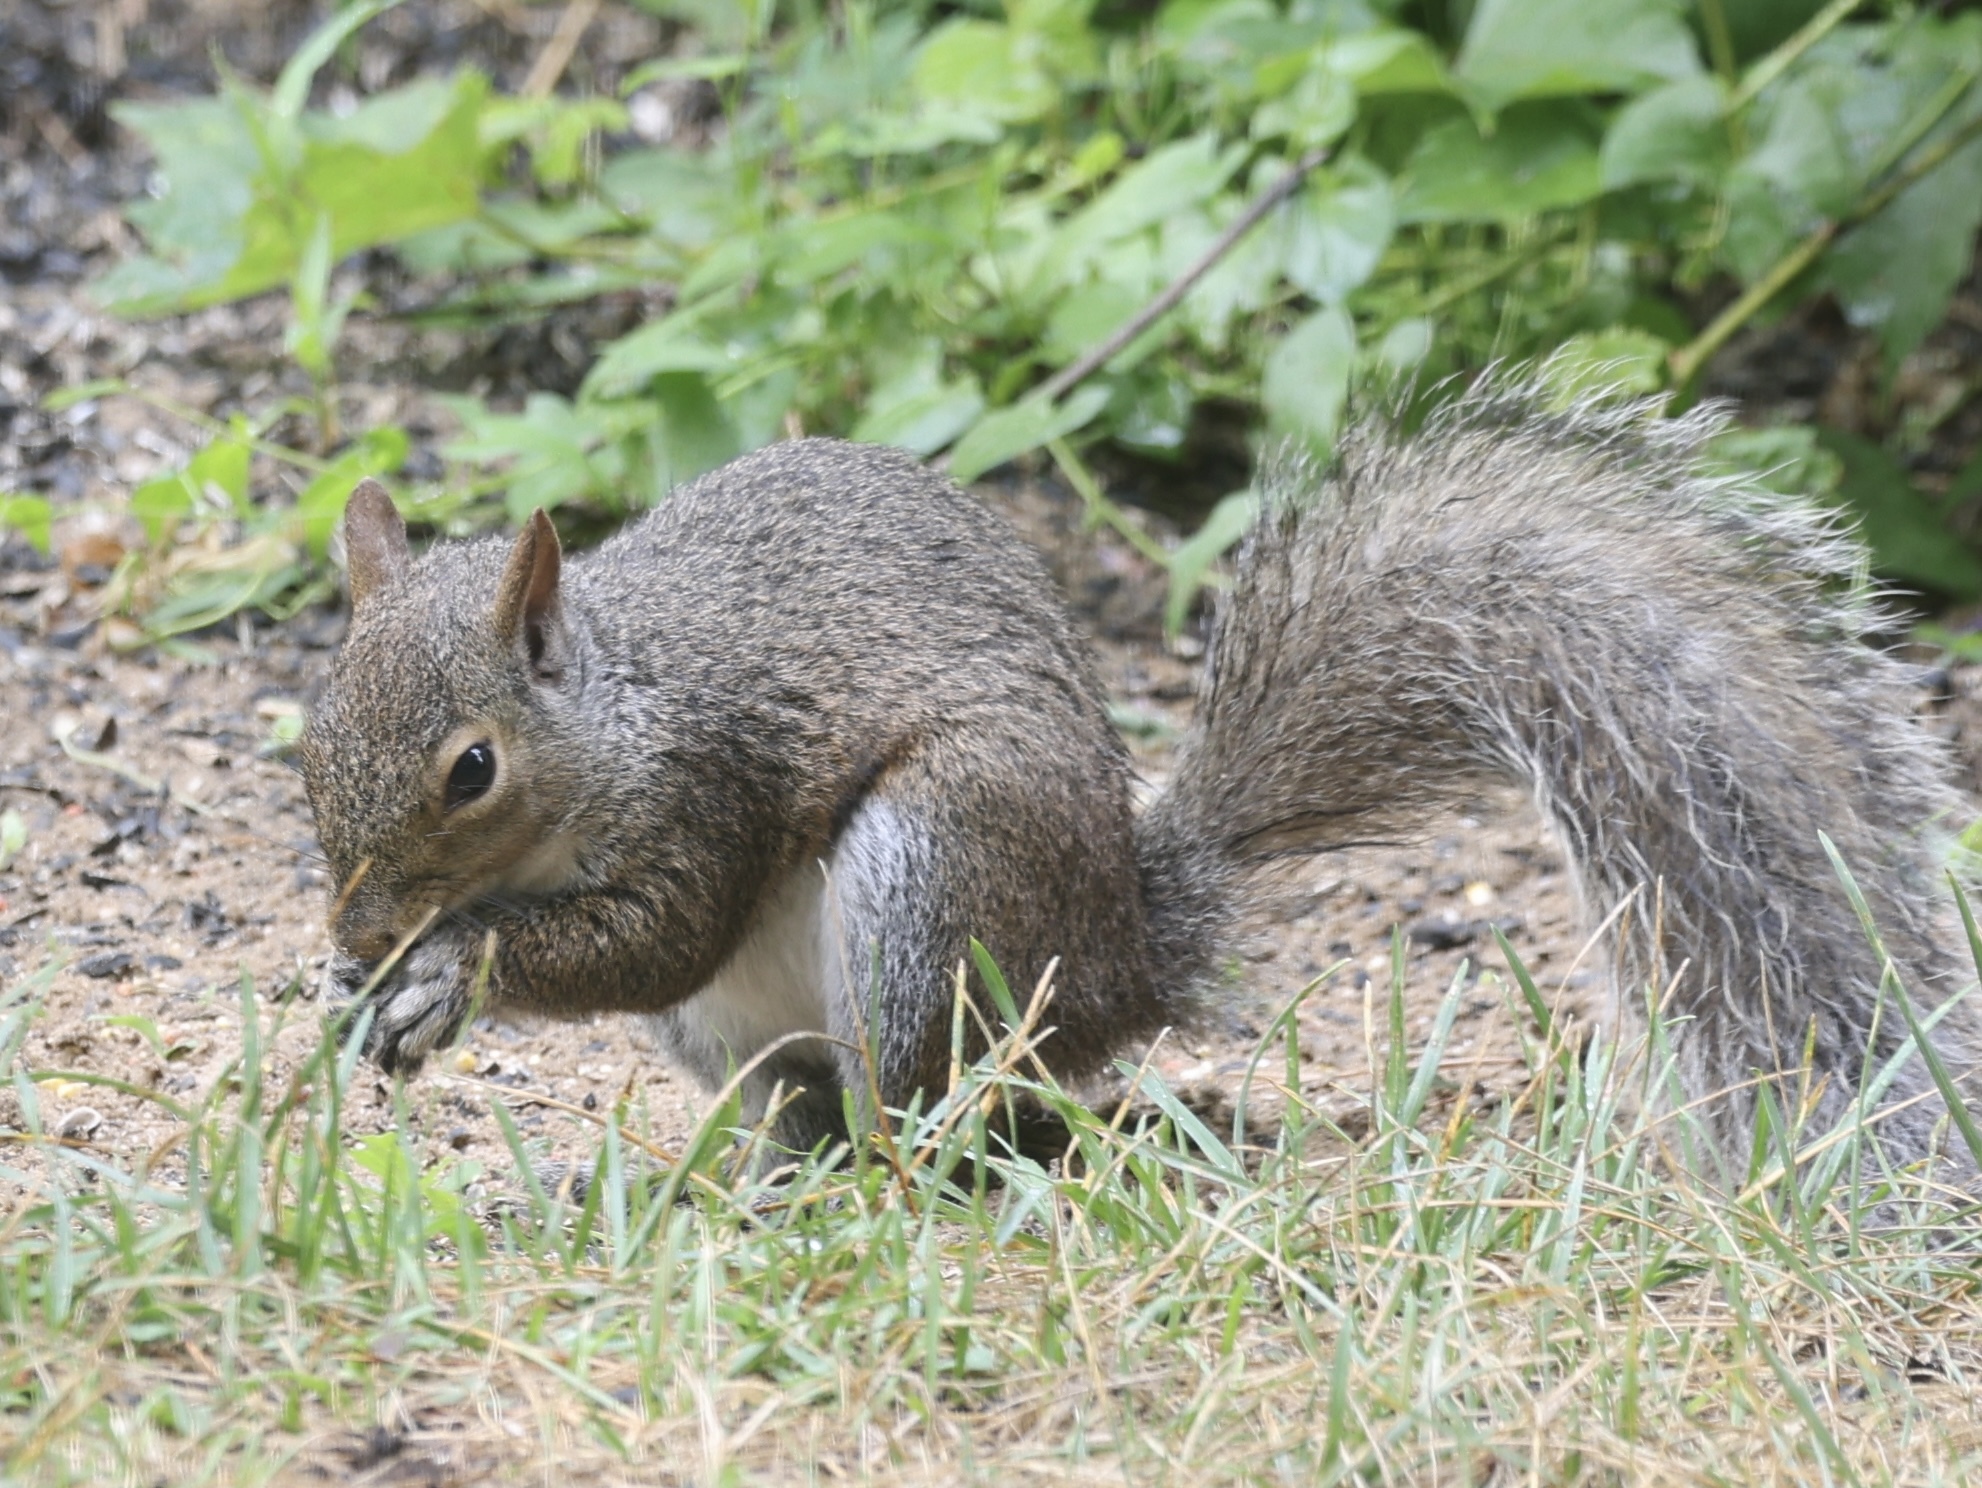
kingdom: Animalia
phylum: Chordata
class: Mammalia
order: Rodentia
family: Sciuridae
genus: Sciurus
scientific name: Sciurus carolinensis
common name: Eastern gray squirrel
